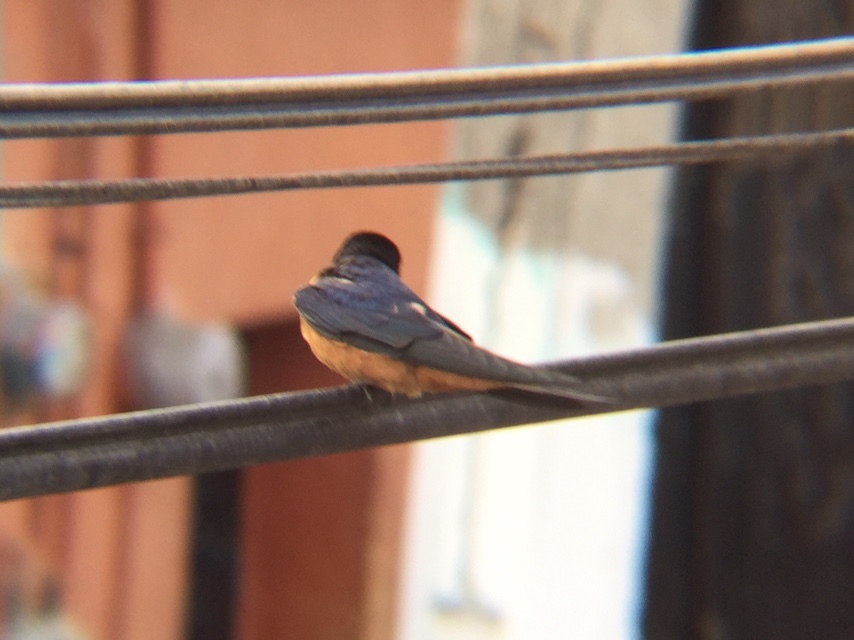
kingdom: Animalia
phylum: Chordata
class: Aves
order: Passeriformes
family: Hirundinidae
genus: Hirundo
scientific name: Hirundo rustica
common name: Barn swallow
